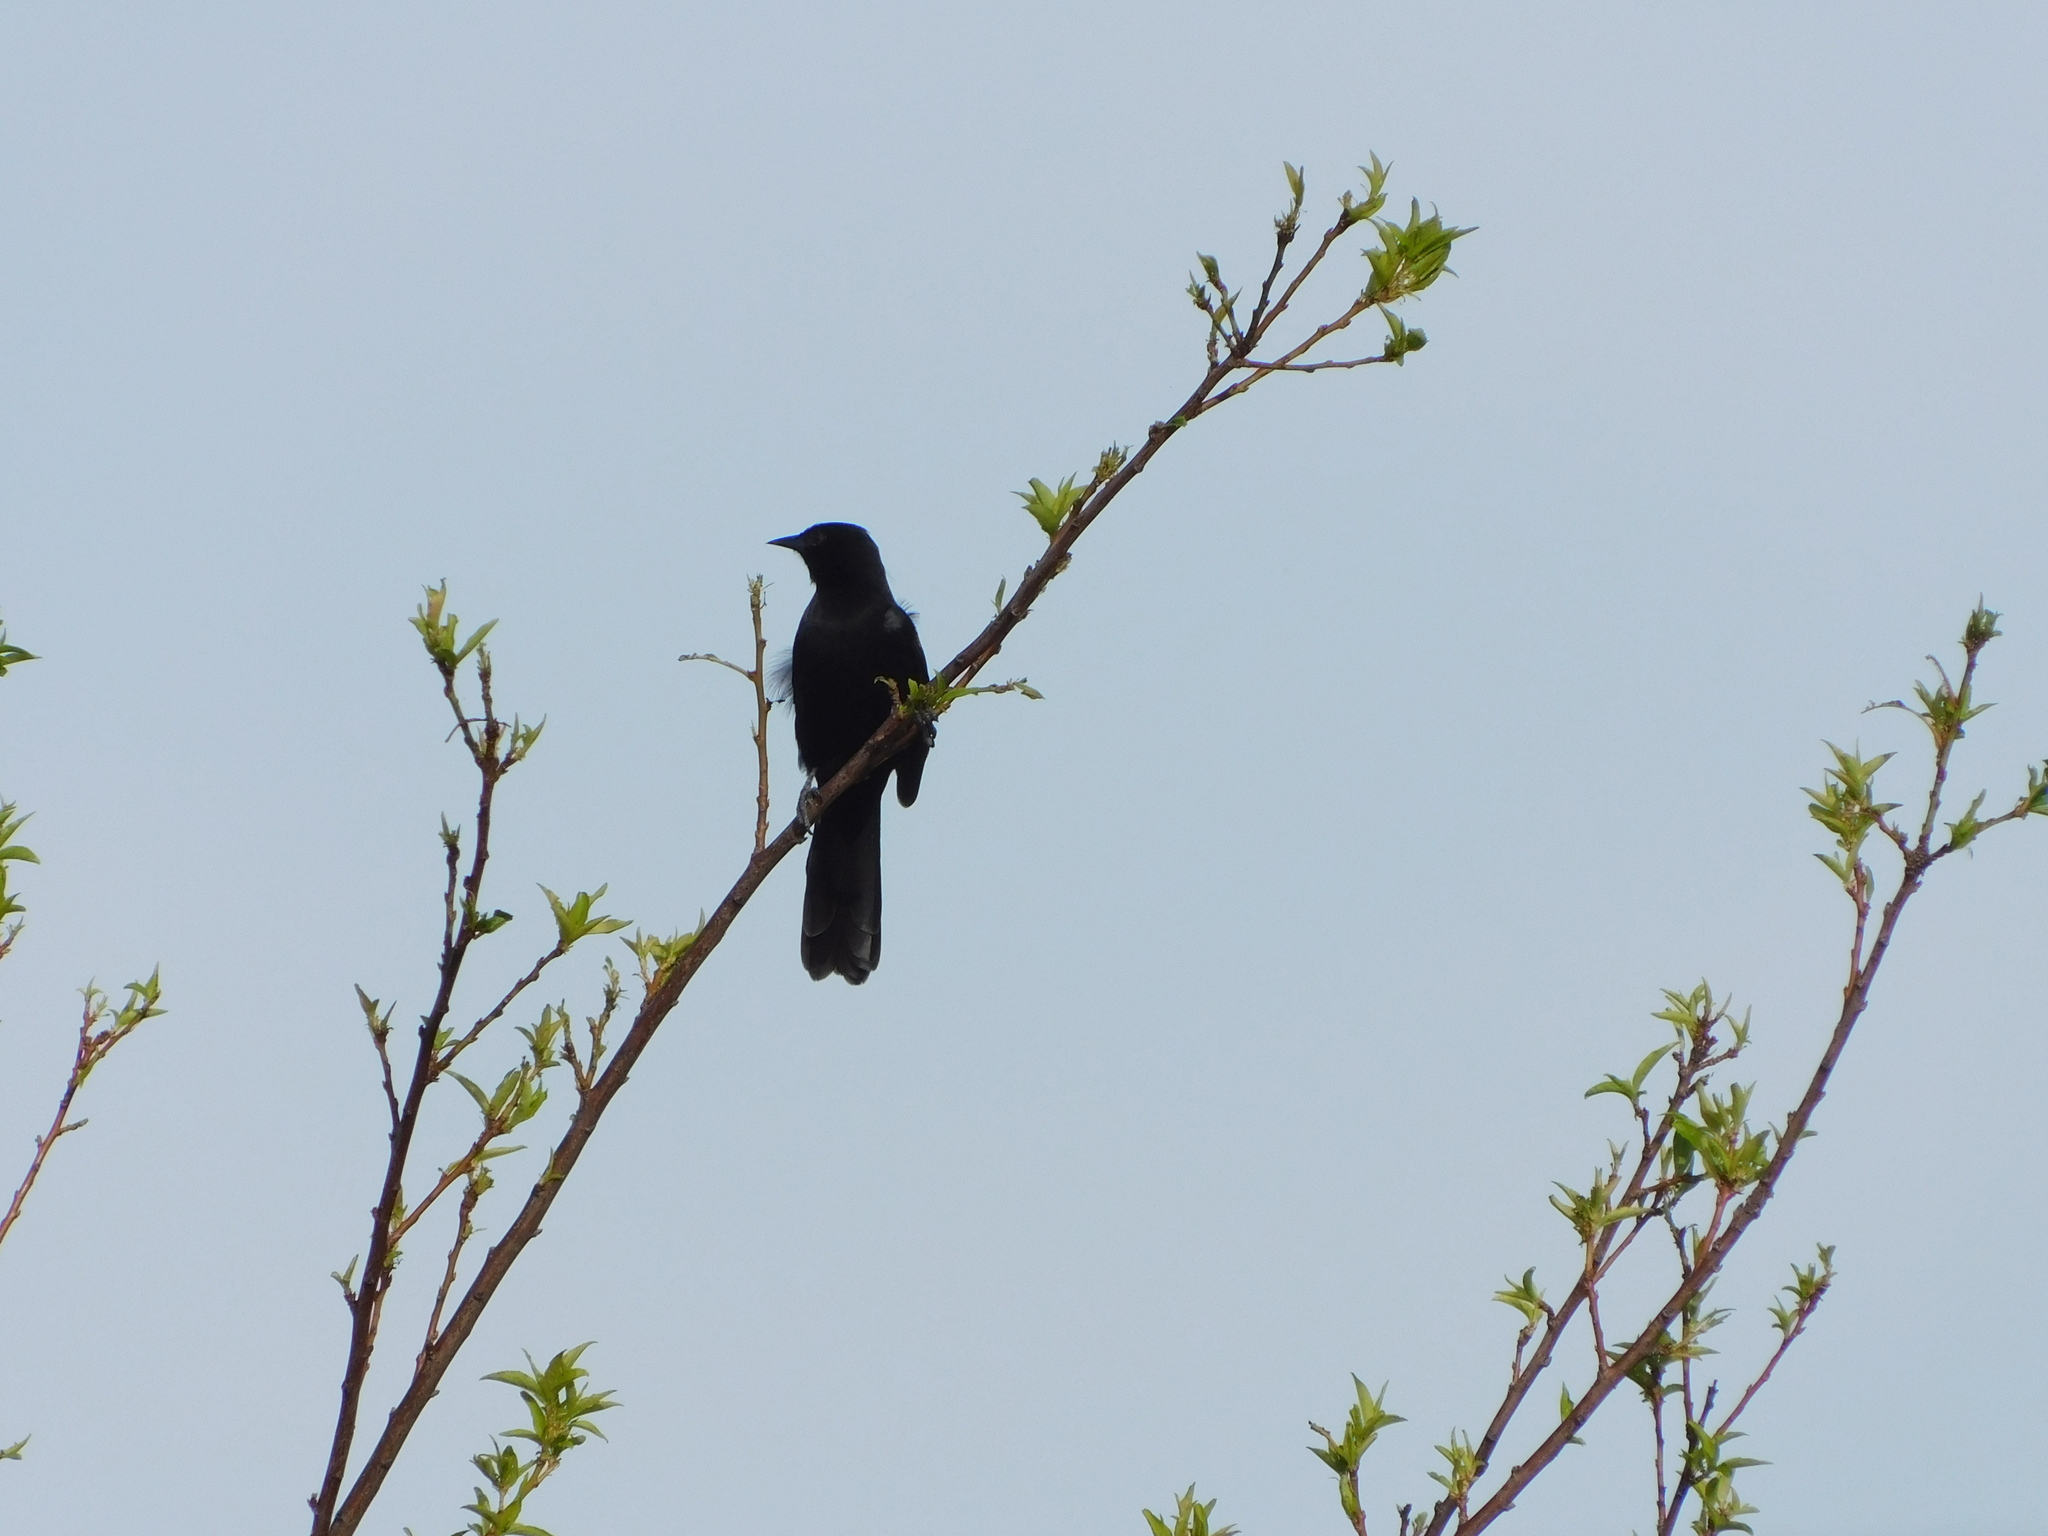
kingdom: Animalia
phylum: Chordata
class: Aves
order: Passeriformes
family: Icteridae
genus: Icterus
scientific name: Icterus cayanensis
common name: Epaulet oriole
